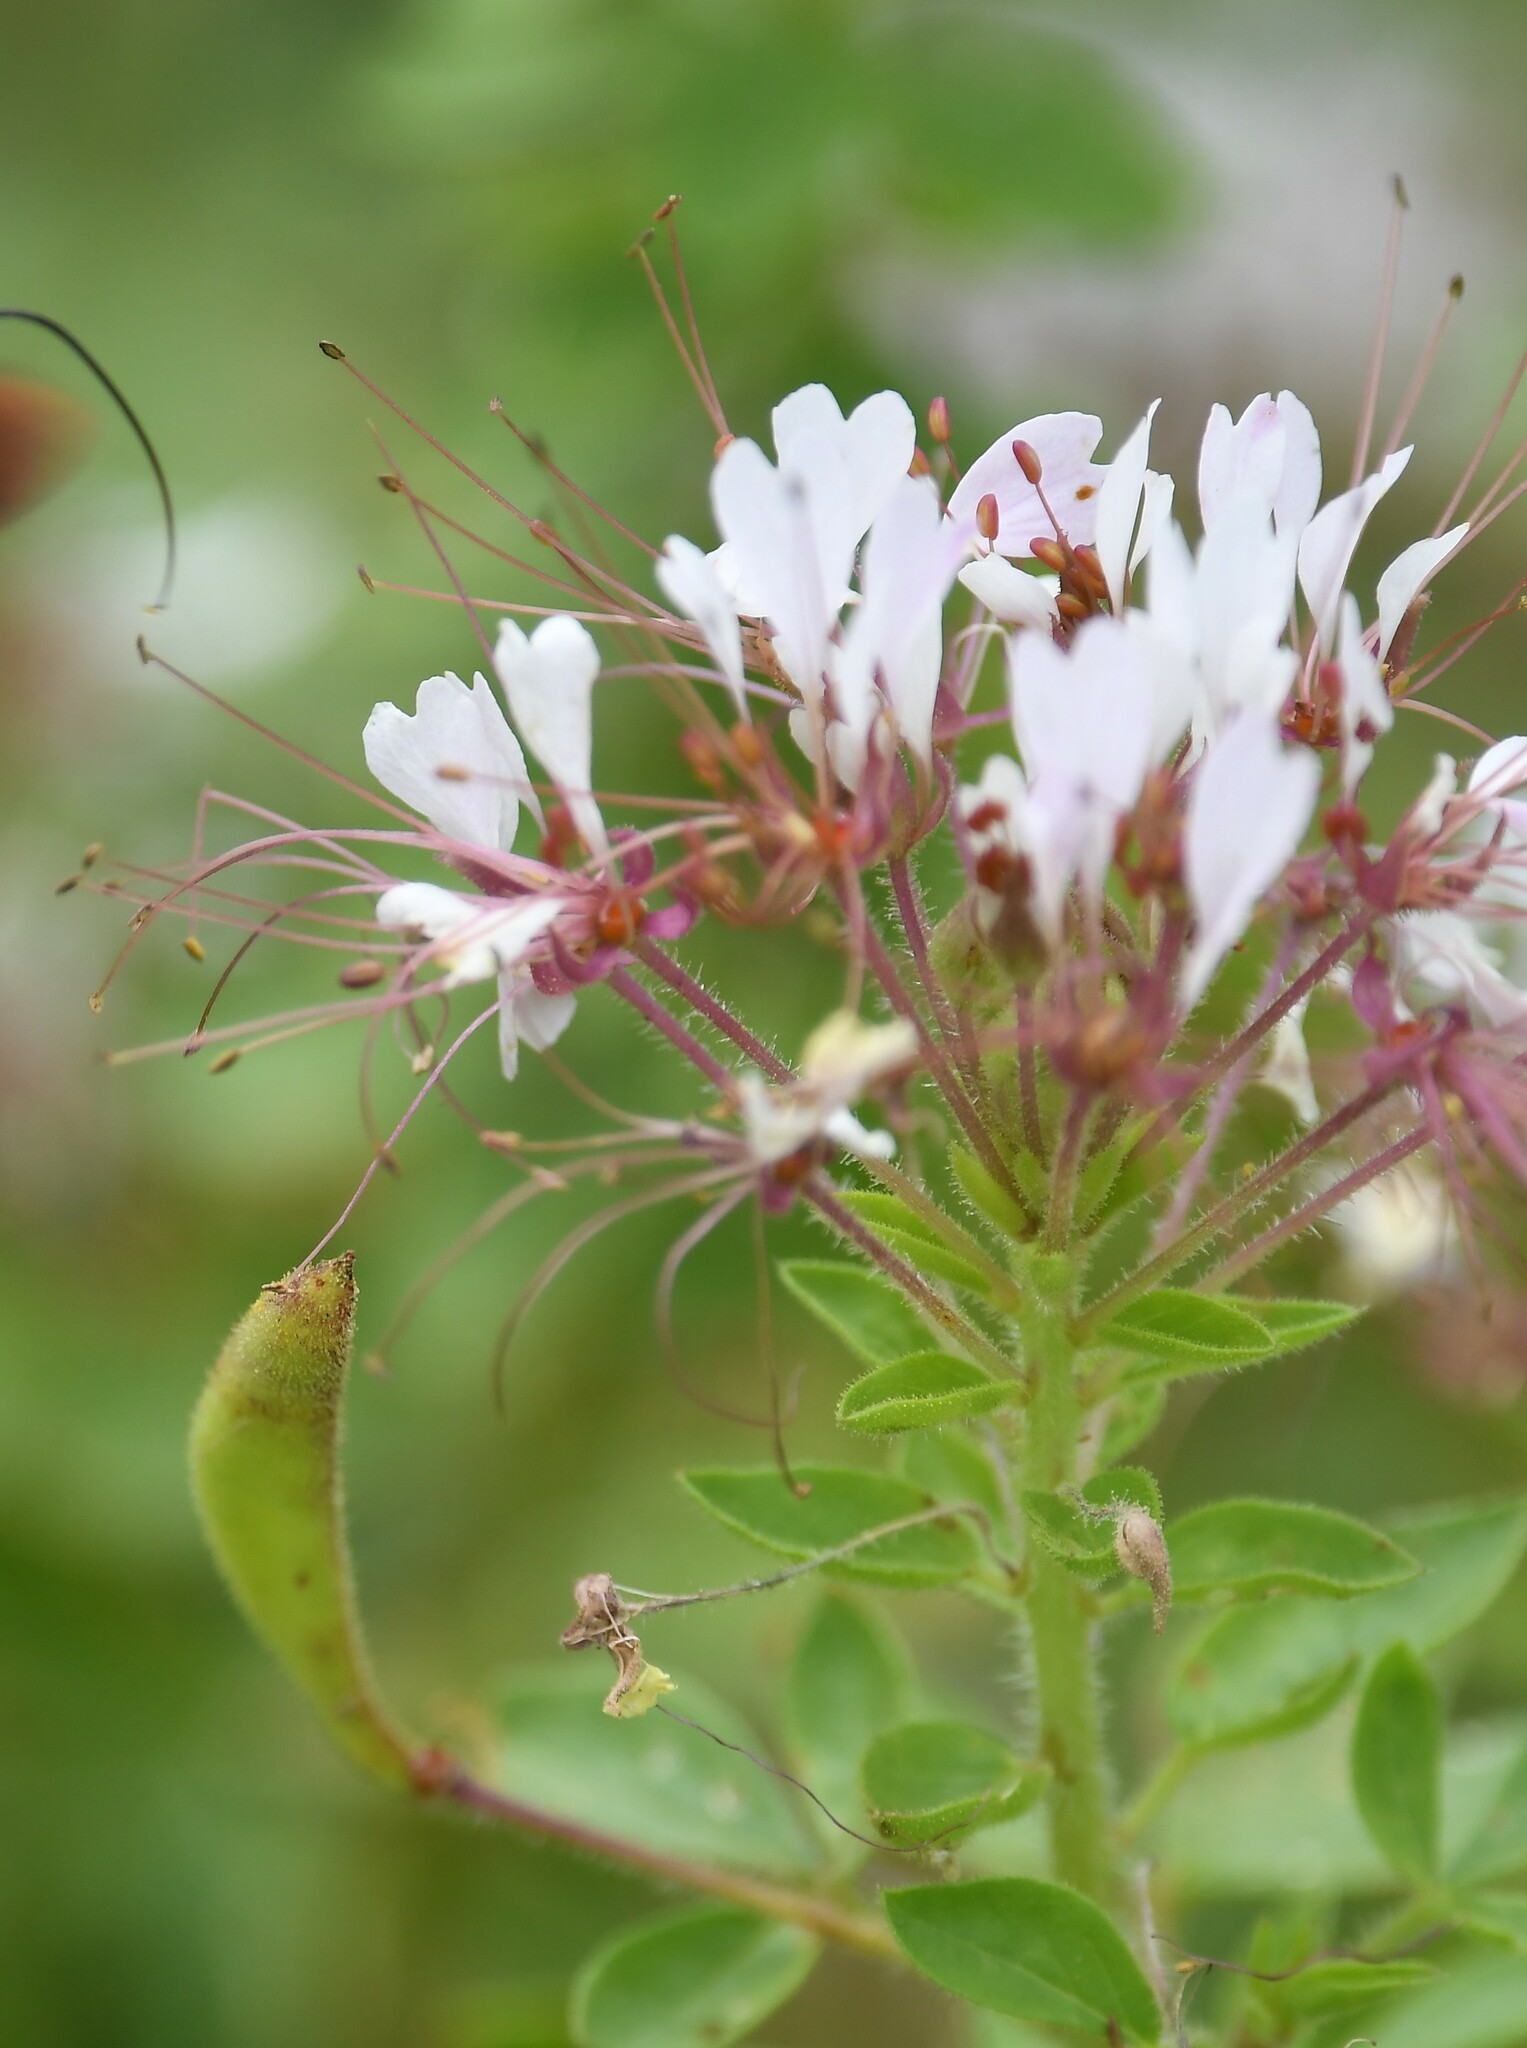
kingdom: Plantae
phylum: Tracheophyta
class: Magnoliopsida
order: Brassicales
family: Cleomaceae
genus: Polanisia
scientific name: Polanisia dodecandra
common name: Clammyweed
